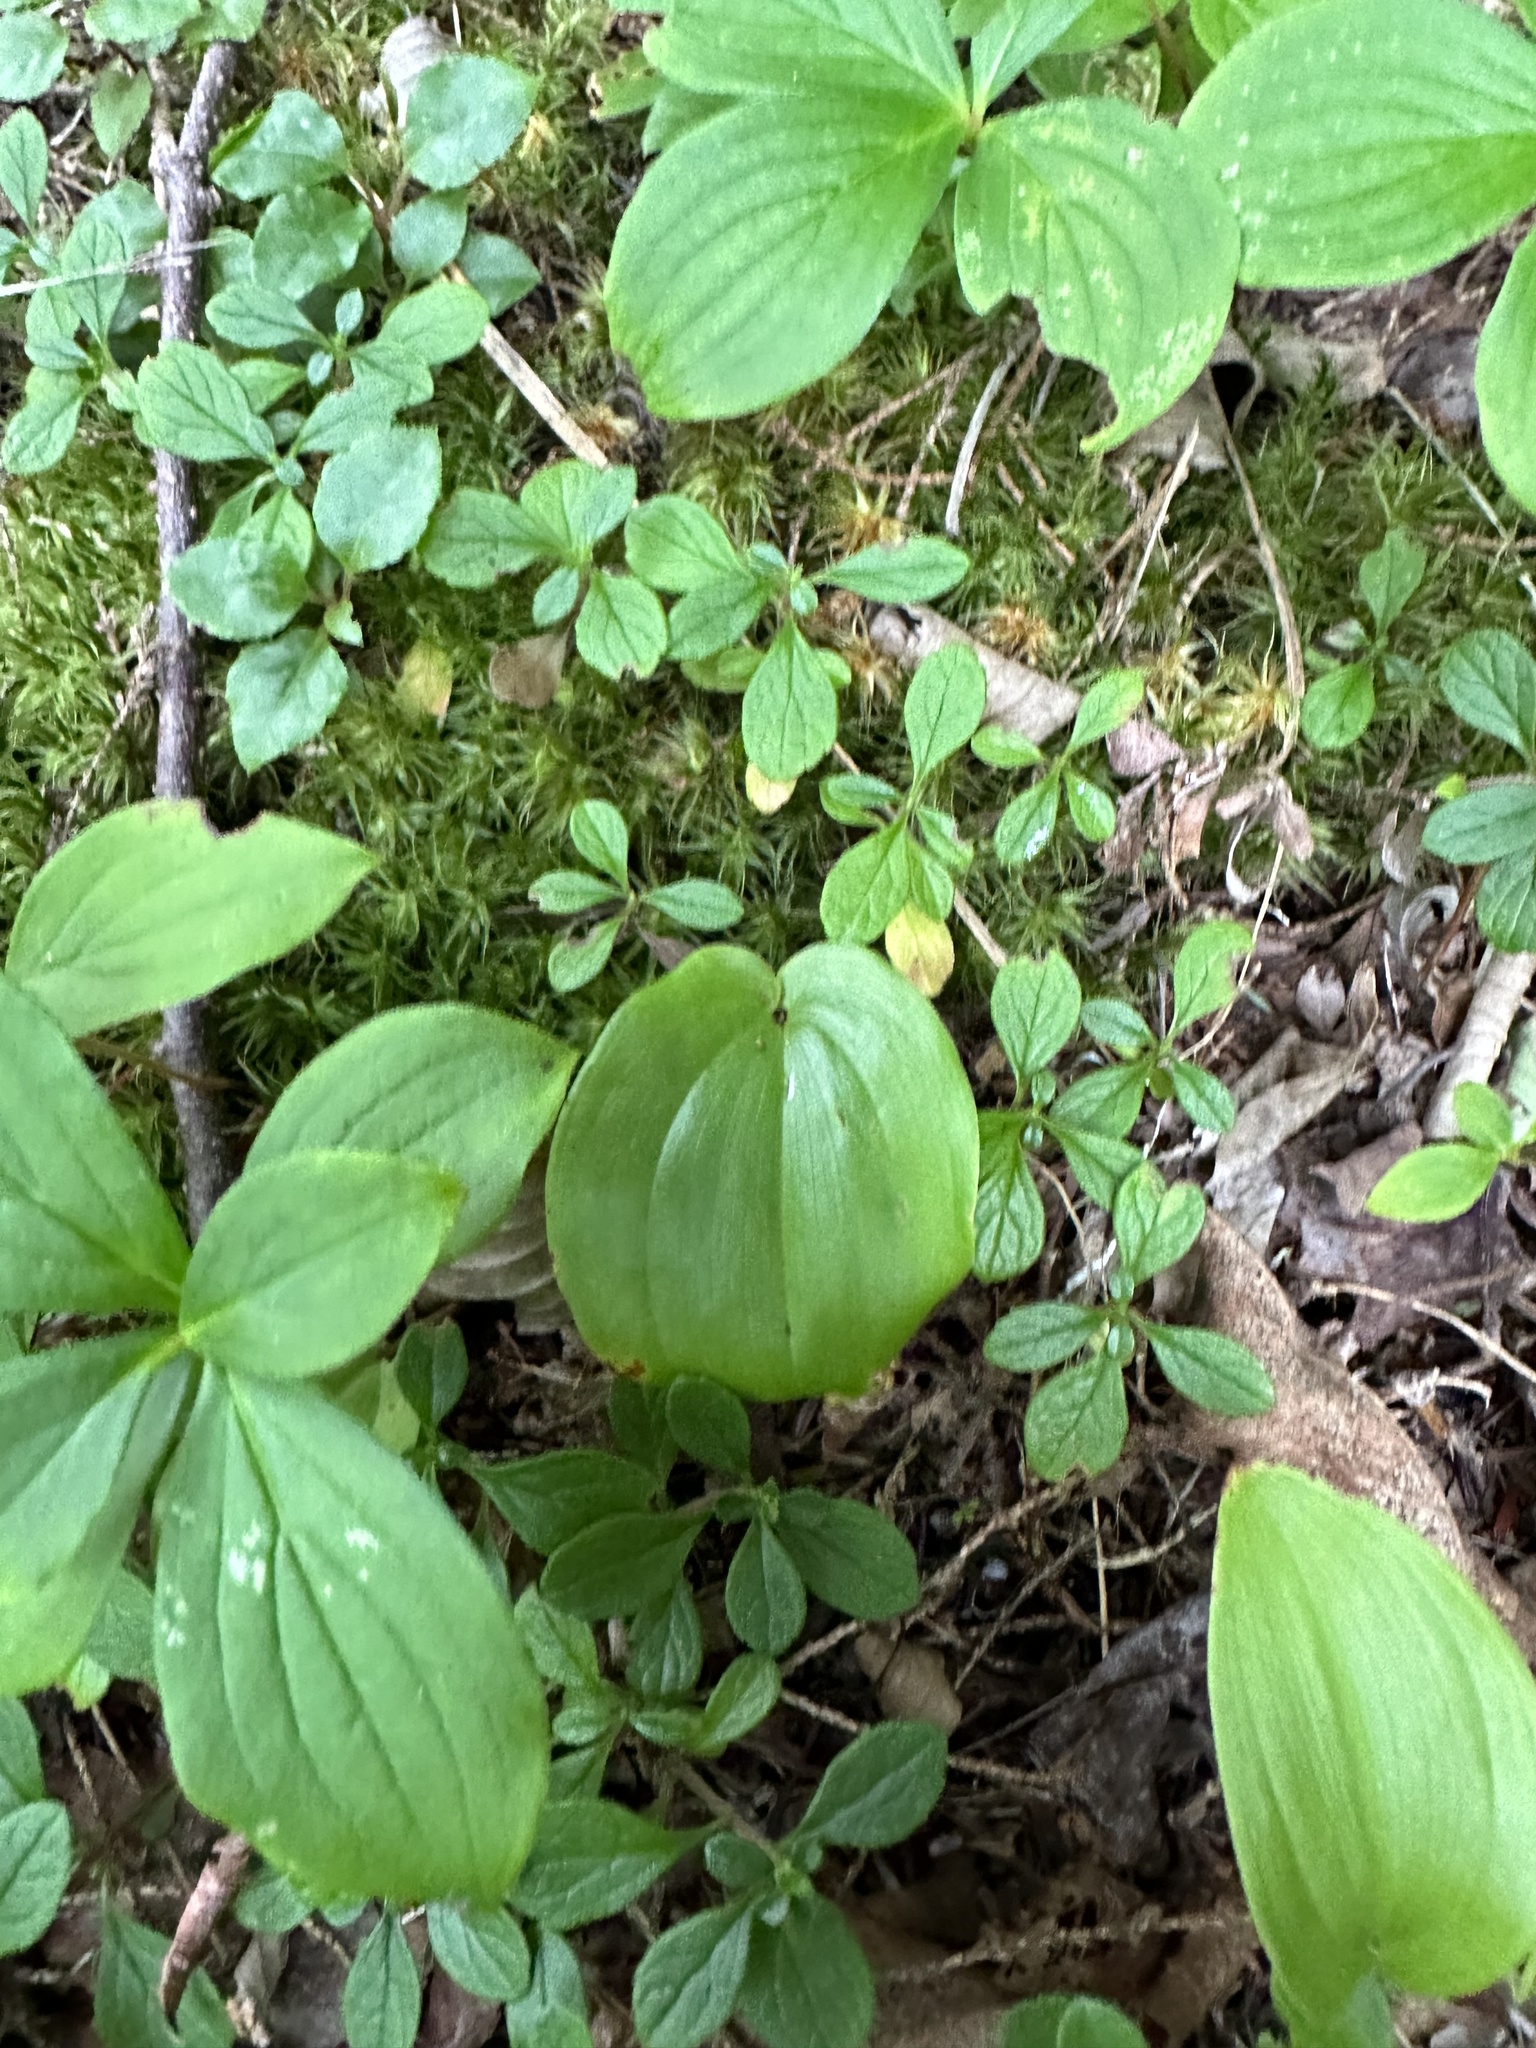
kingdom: Plantae
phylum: Tracheophyta
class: Liliopsida
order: Asparagales
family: Asparagaceae
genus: Maianthemum
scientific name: Maianthemum canadense
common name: False lily-of-the-valley
